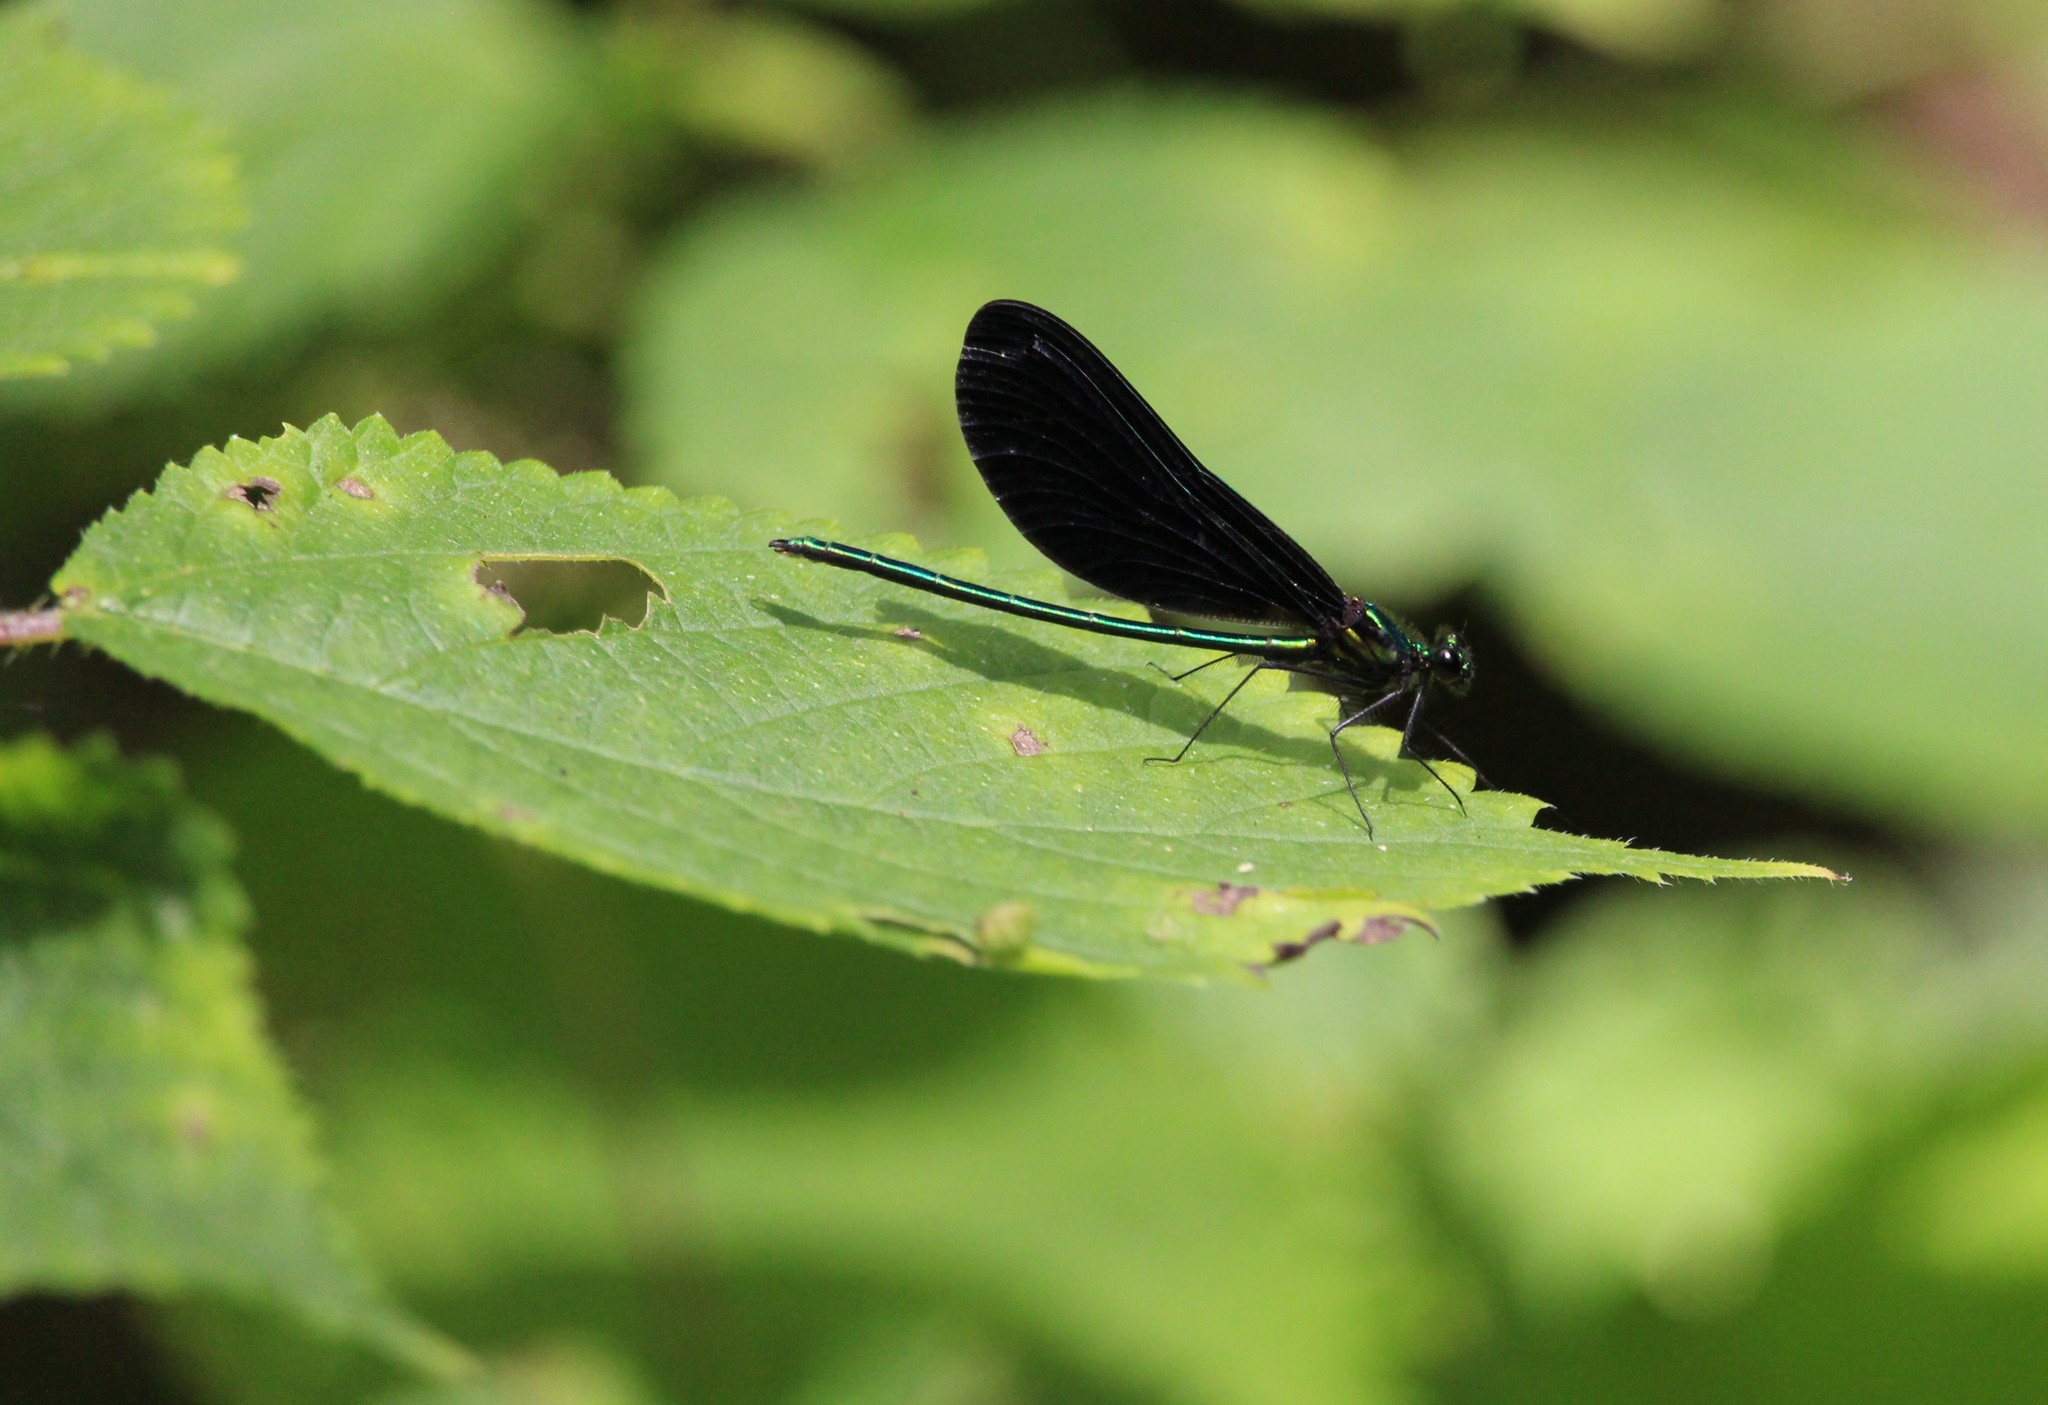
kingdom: Animalia
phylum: Arthropoda
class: Insecta
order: Odonata
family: Calopterygidae
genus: Calopteryx
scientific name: Calopteryx maculata
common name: Ebony jewelwing
